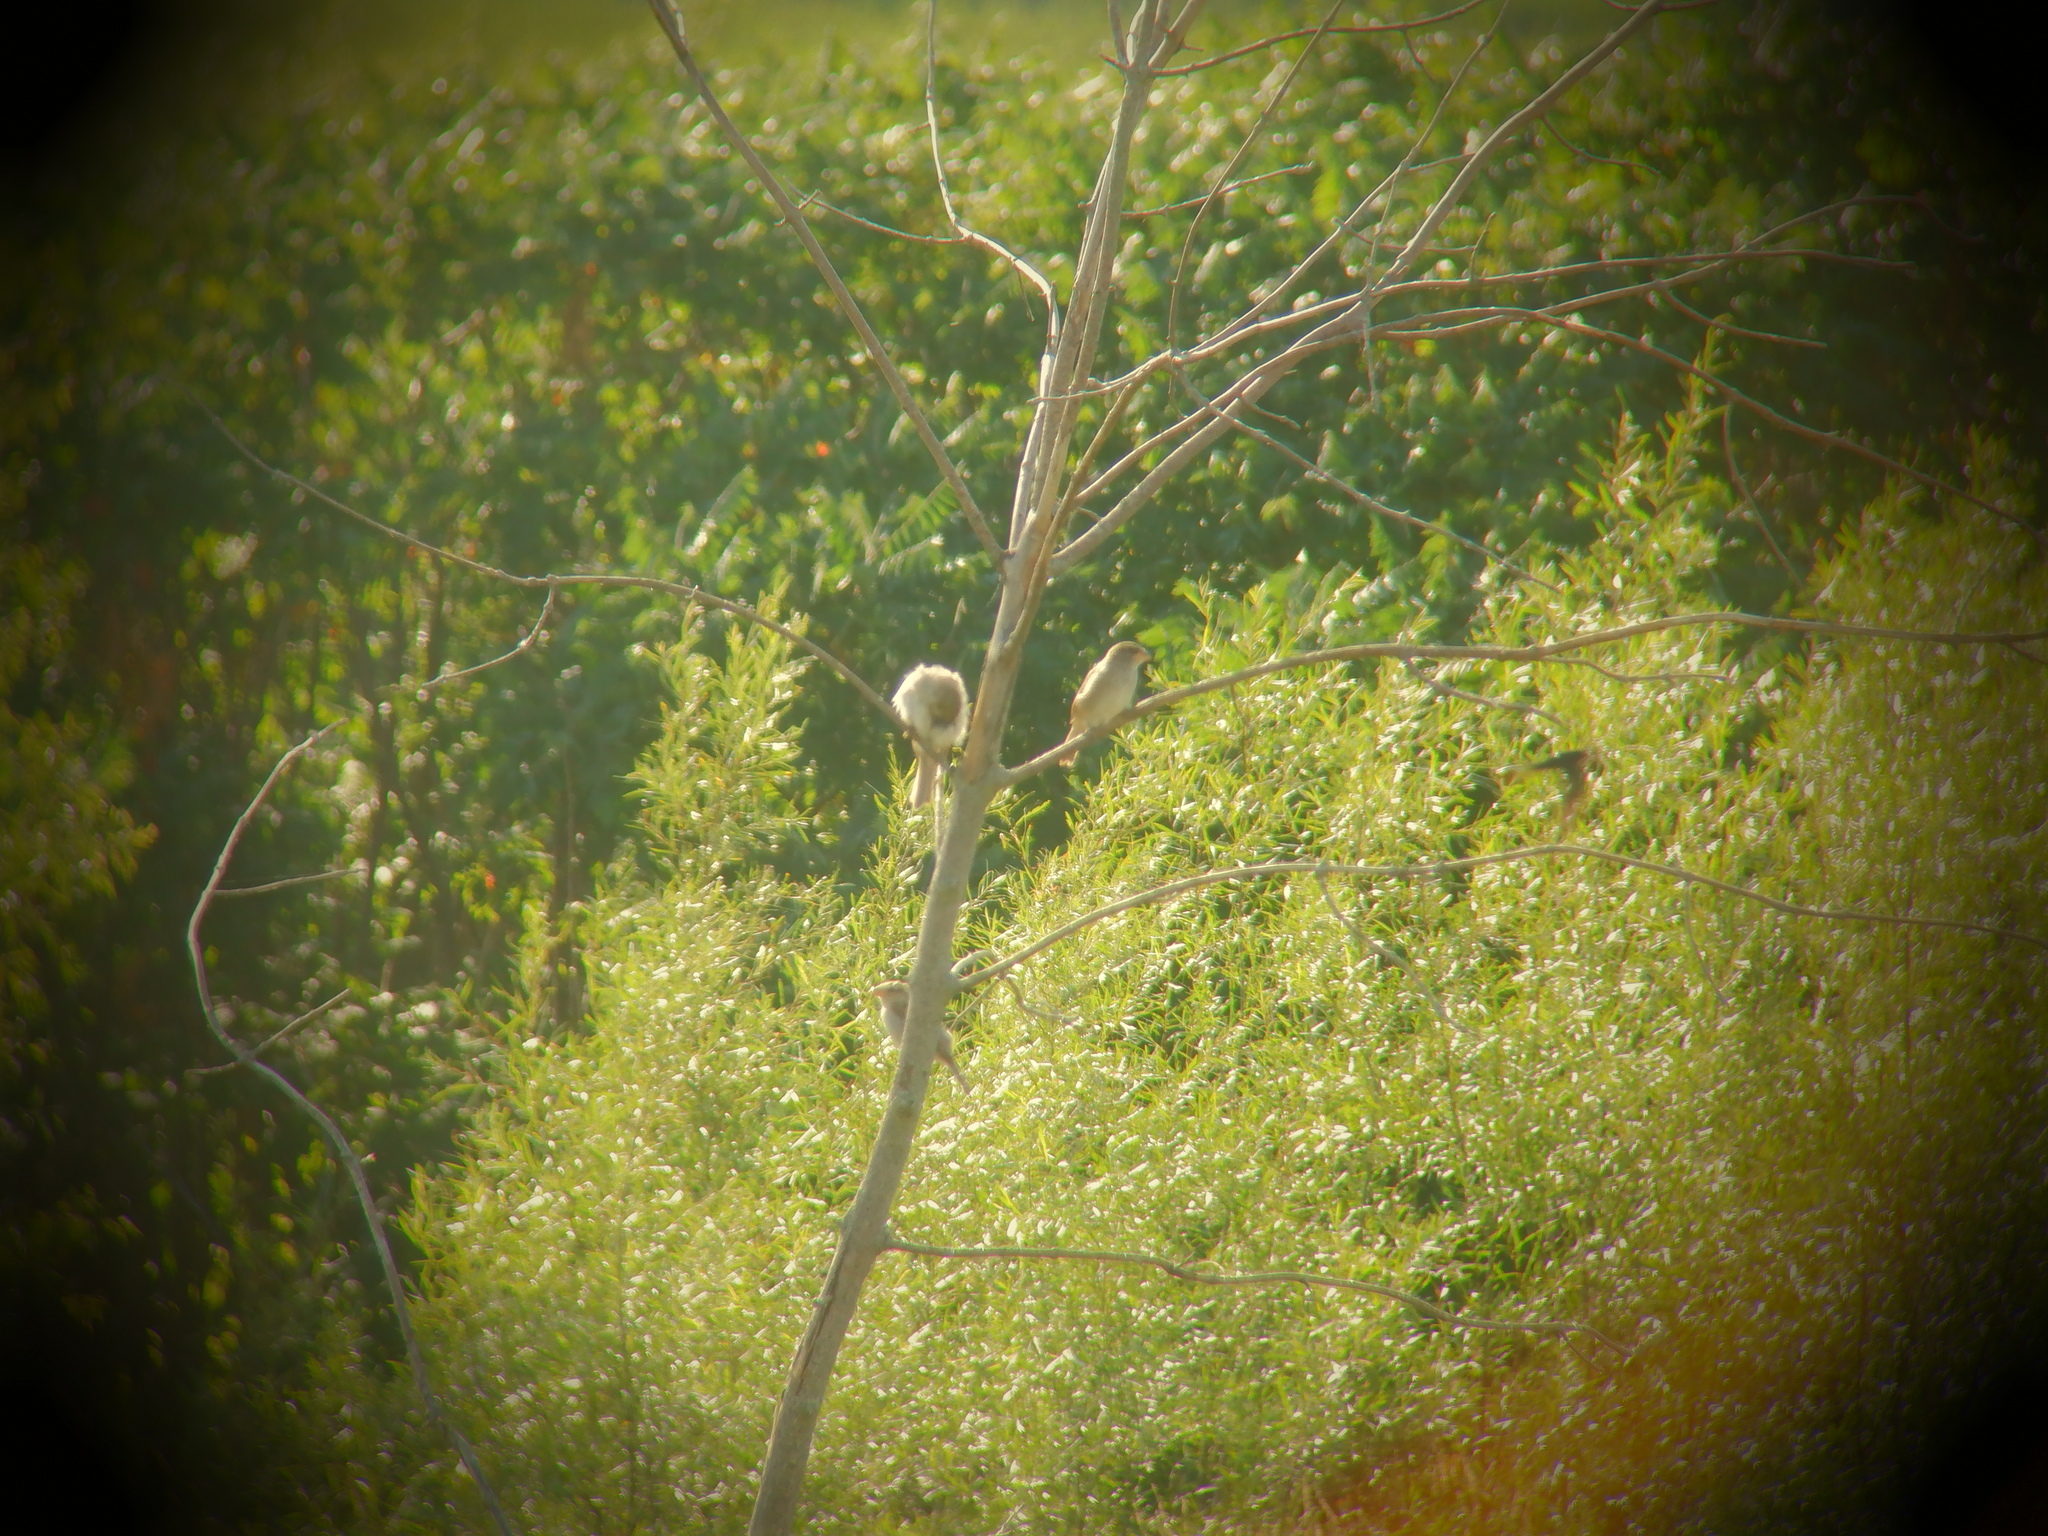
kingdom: Animalia
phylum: Chordata
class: Aves
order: Passeriformes
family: Passeridae
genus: Passer
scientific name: Passer domesticus
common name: House sparrow
